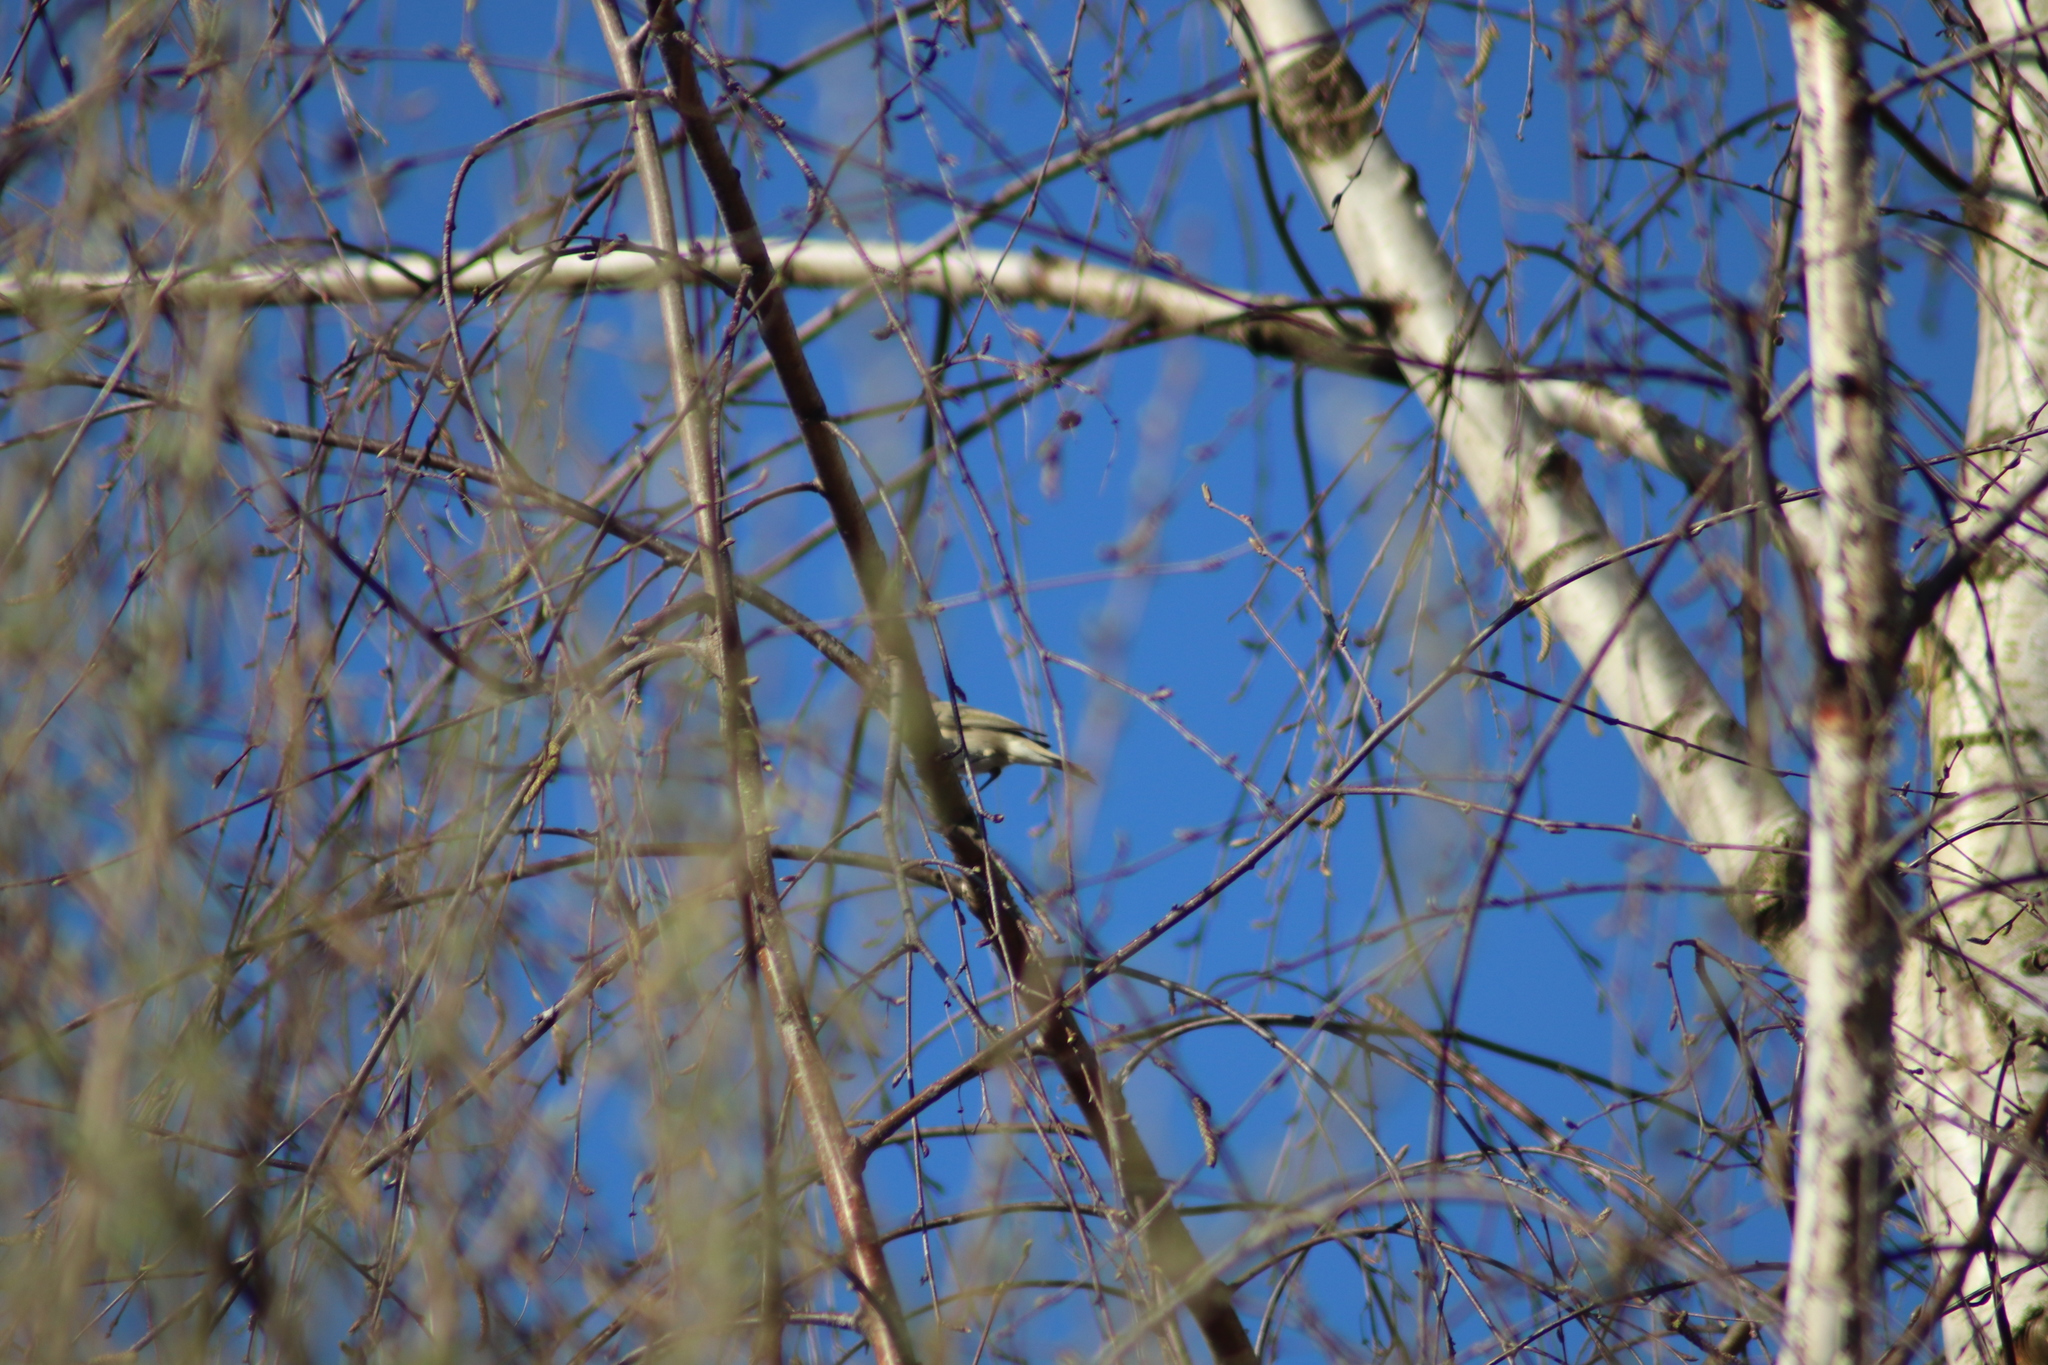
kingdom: Animalia
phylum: Chordata
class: Aves
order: Passeriformes
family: Phylloscopidae
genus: Phylloscopus
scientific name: Phylloscopus collybita
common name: Common chiffchaff
